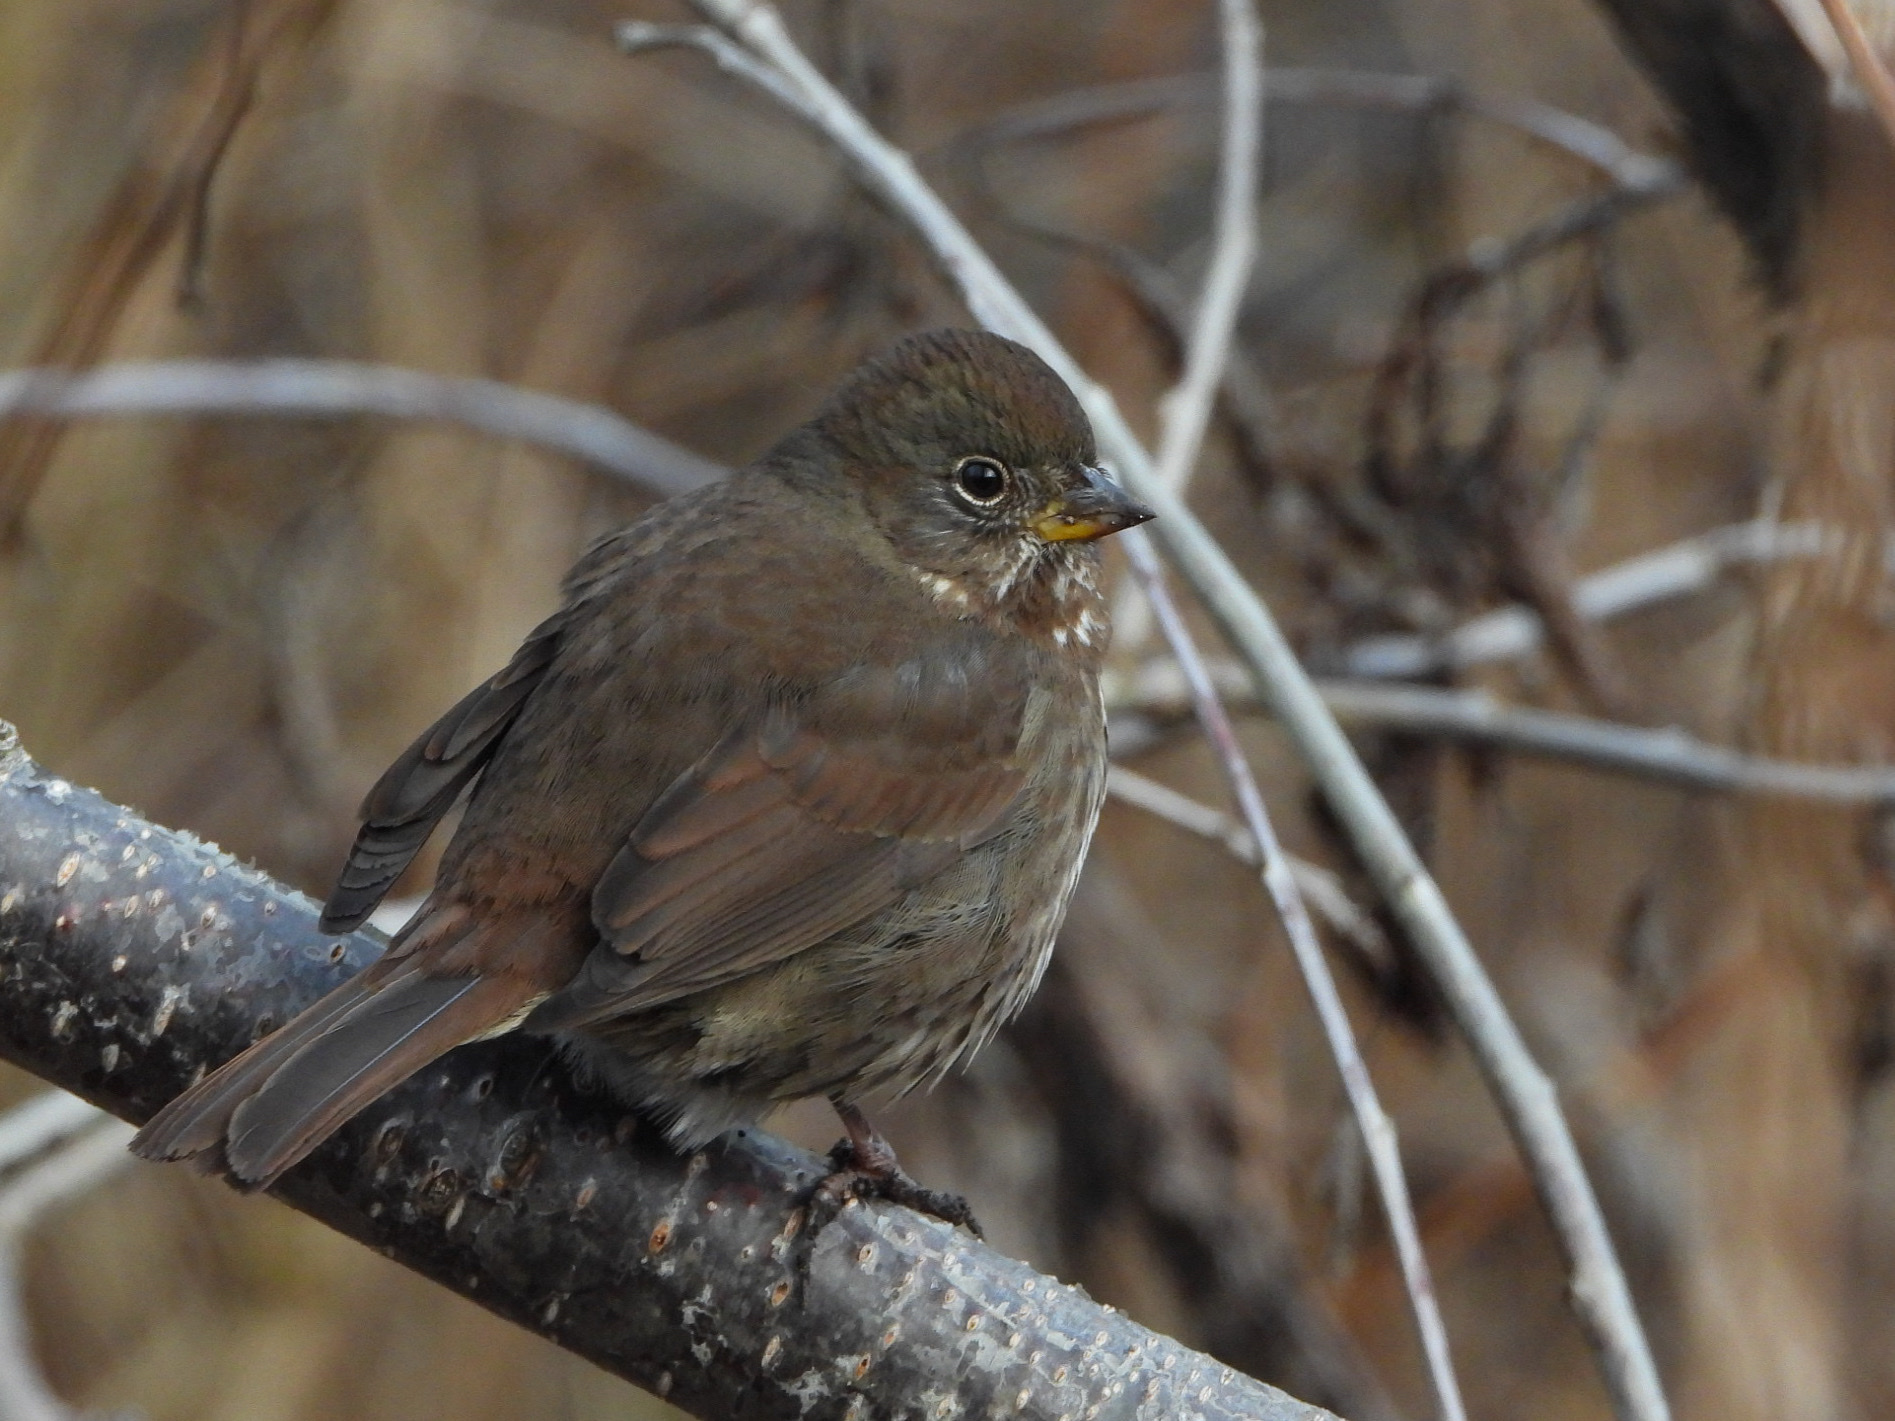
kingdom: Animalia
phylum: Chordata
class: Aves
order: Passeriformes
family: Passerellidae
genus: Passerella
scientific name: Passerella iliaca
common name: Fox sparrow
